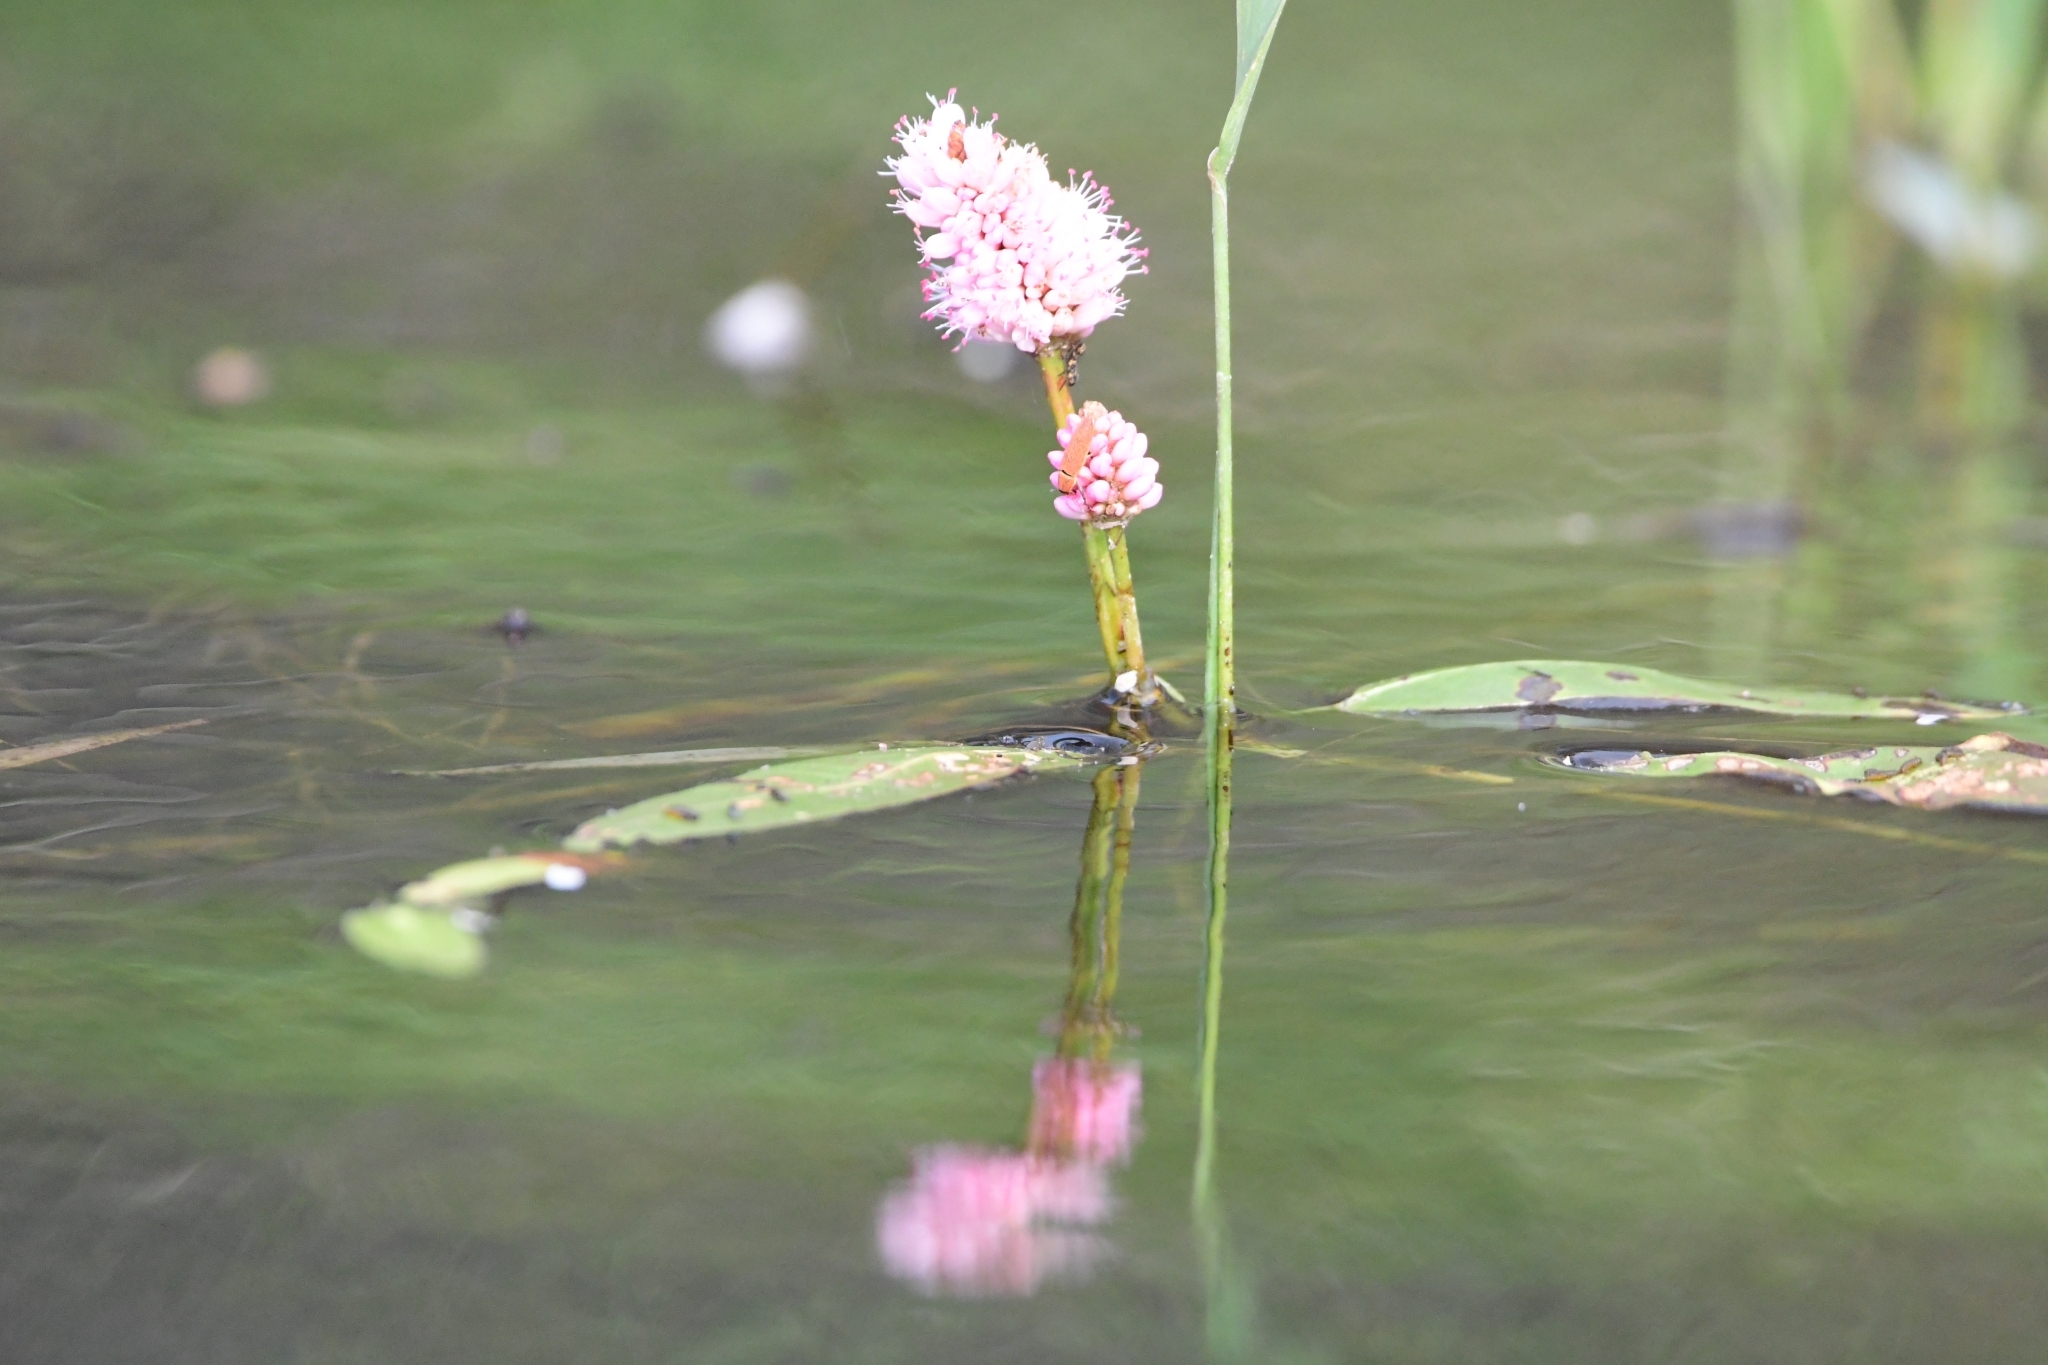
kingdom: Plantae
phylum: Tracheophyta
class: Magnoliopsida
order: Caryophyllales
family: Polygonaceae
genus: Persicaria
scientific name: Persicaria amphibia
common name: Amphibious bistort
